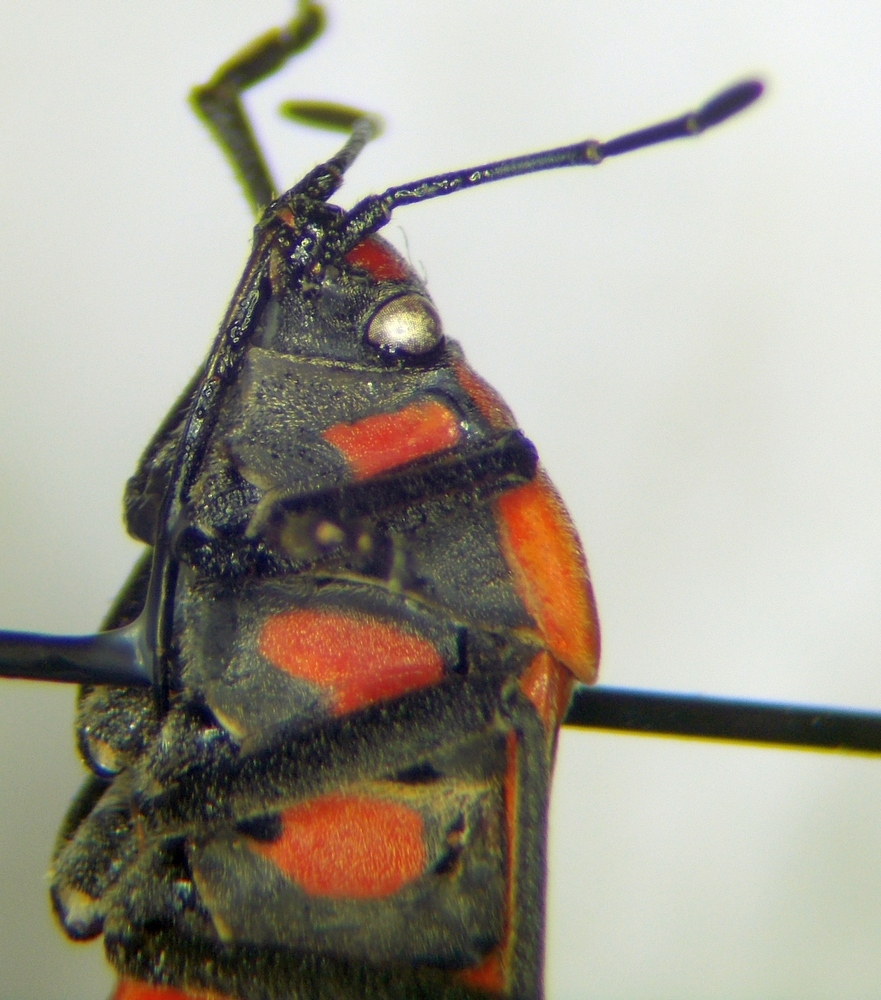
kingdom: Animalia
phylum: Arthropoda
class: Insecta
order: Hemiptera
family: Lygaeidae
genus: Spilostethus
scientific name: Spilostethus pandurus
